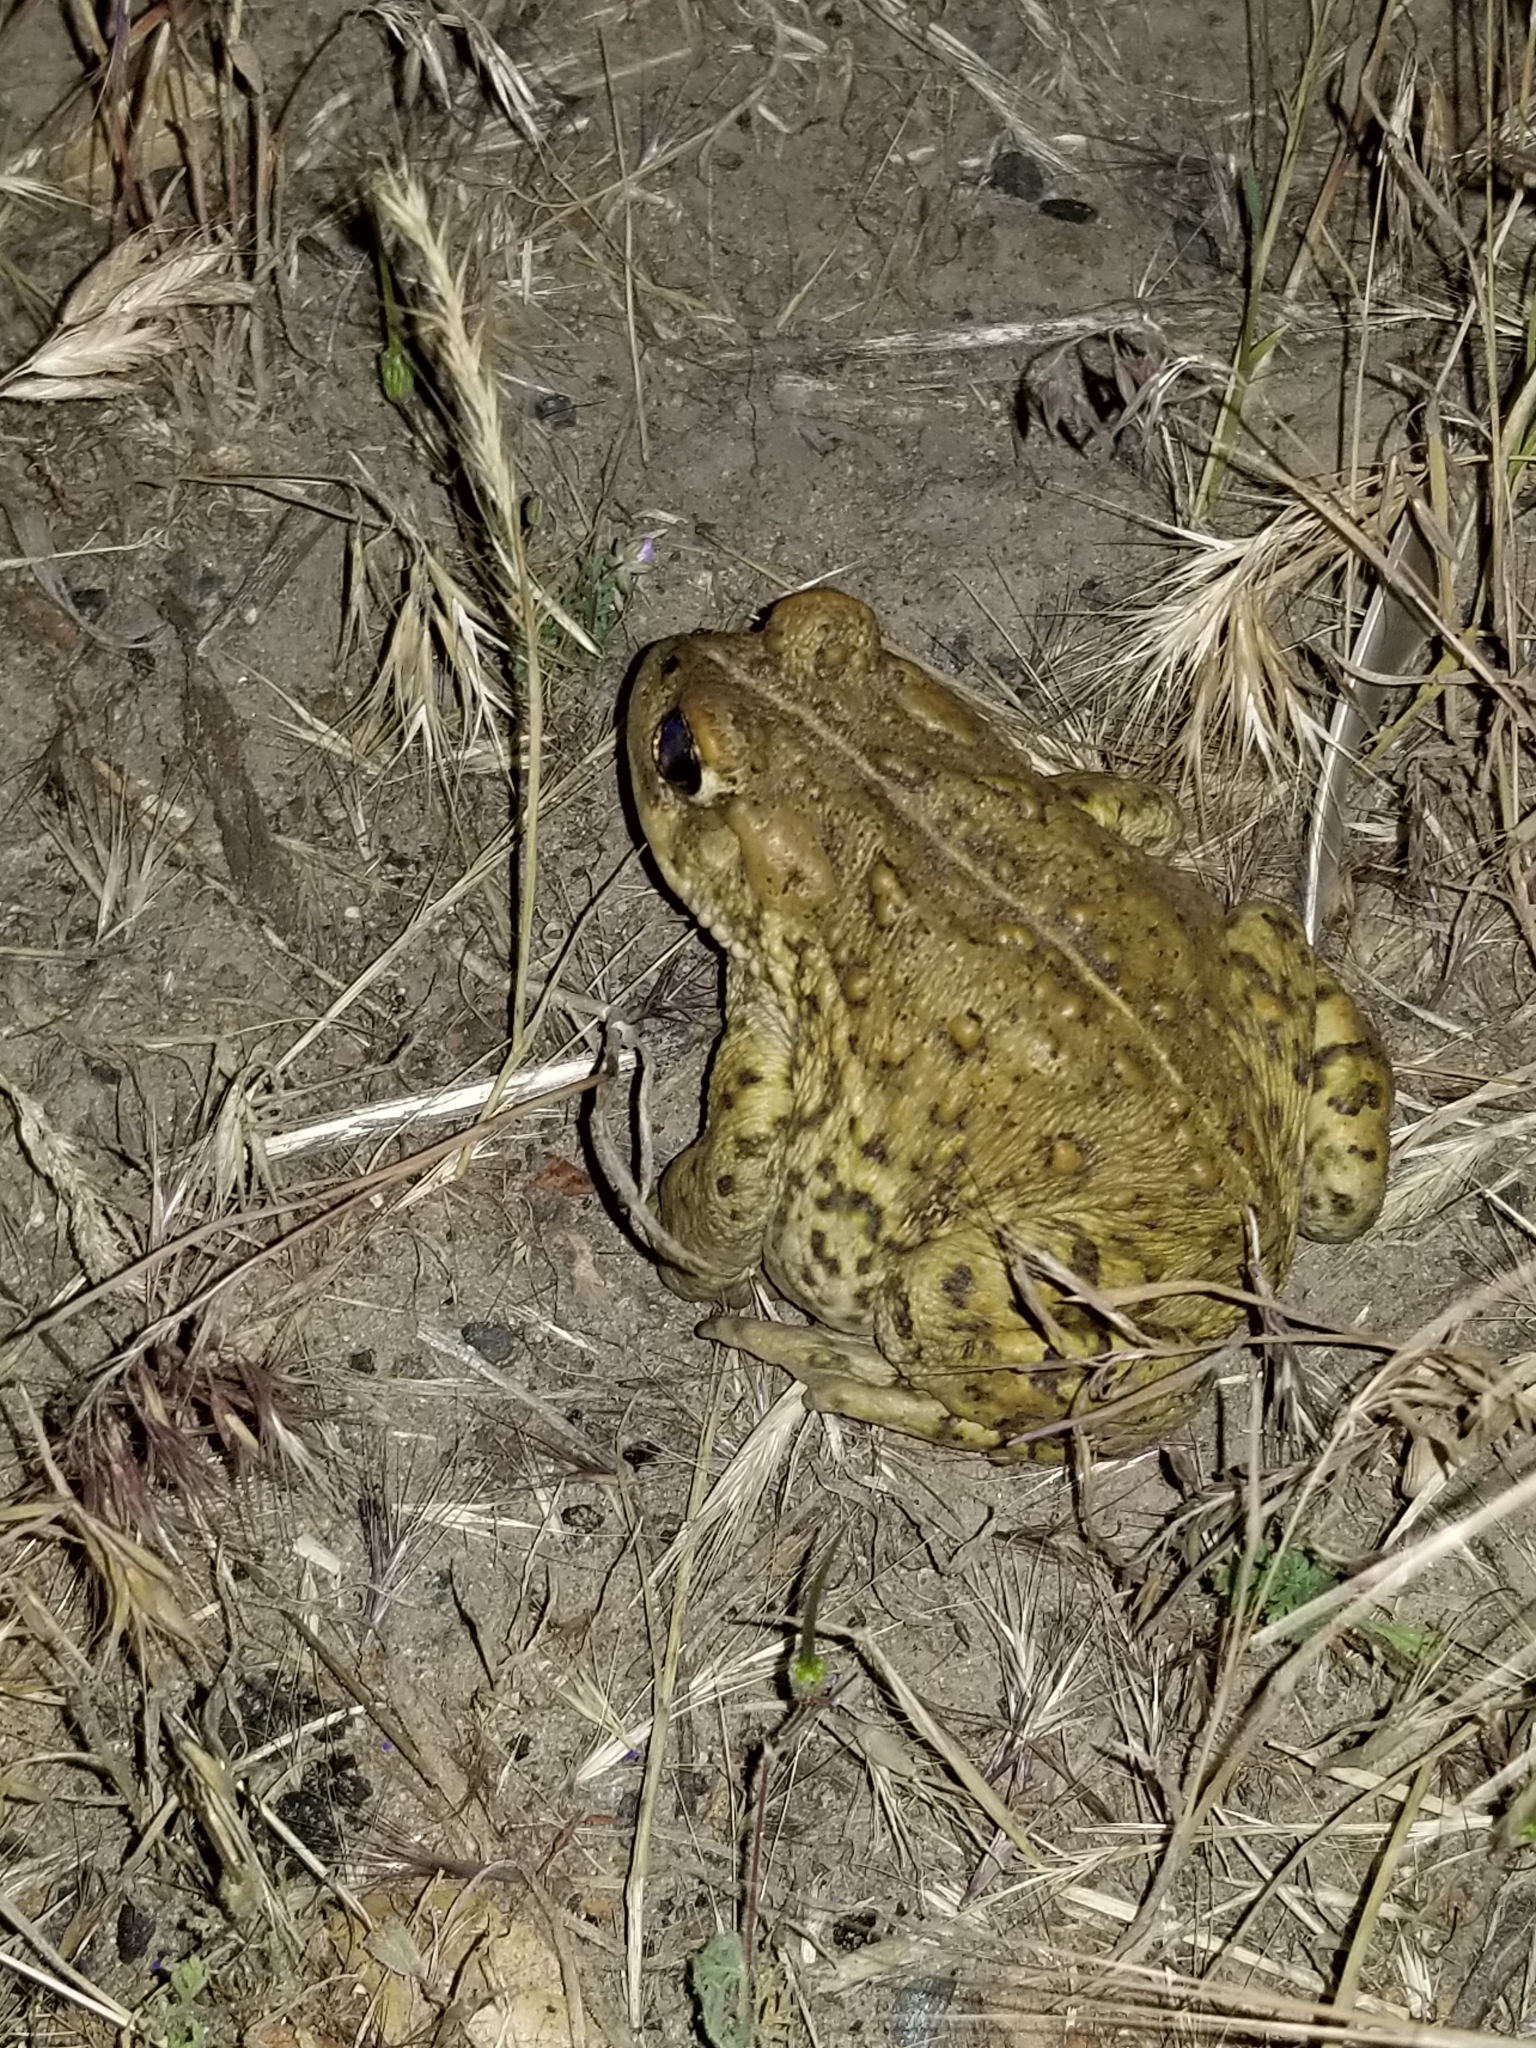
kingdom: Animalia
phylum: Chordata
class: Amphibia
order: Anura
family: Bufonidae
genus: Anaxyrus
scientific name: Anaxyrus boreas
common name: Western toad
